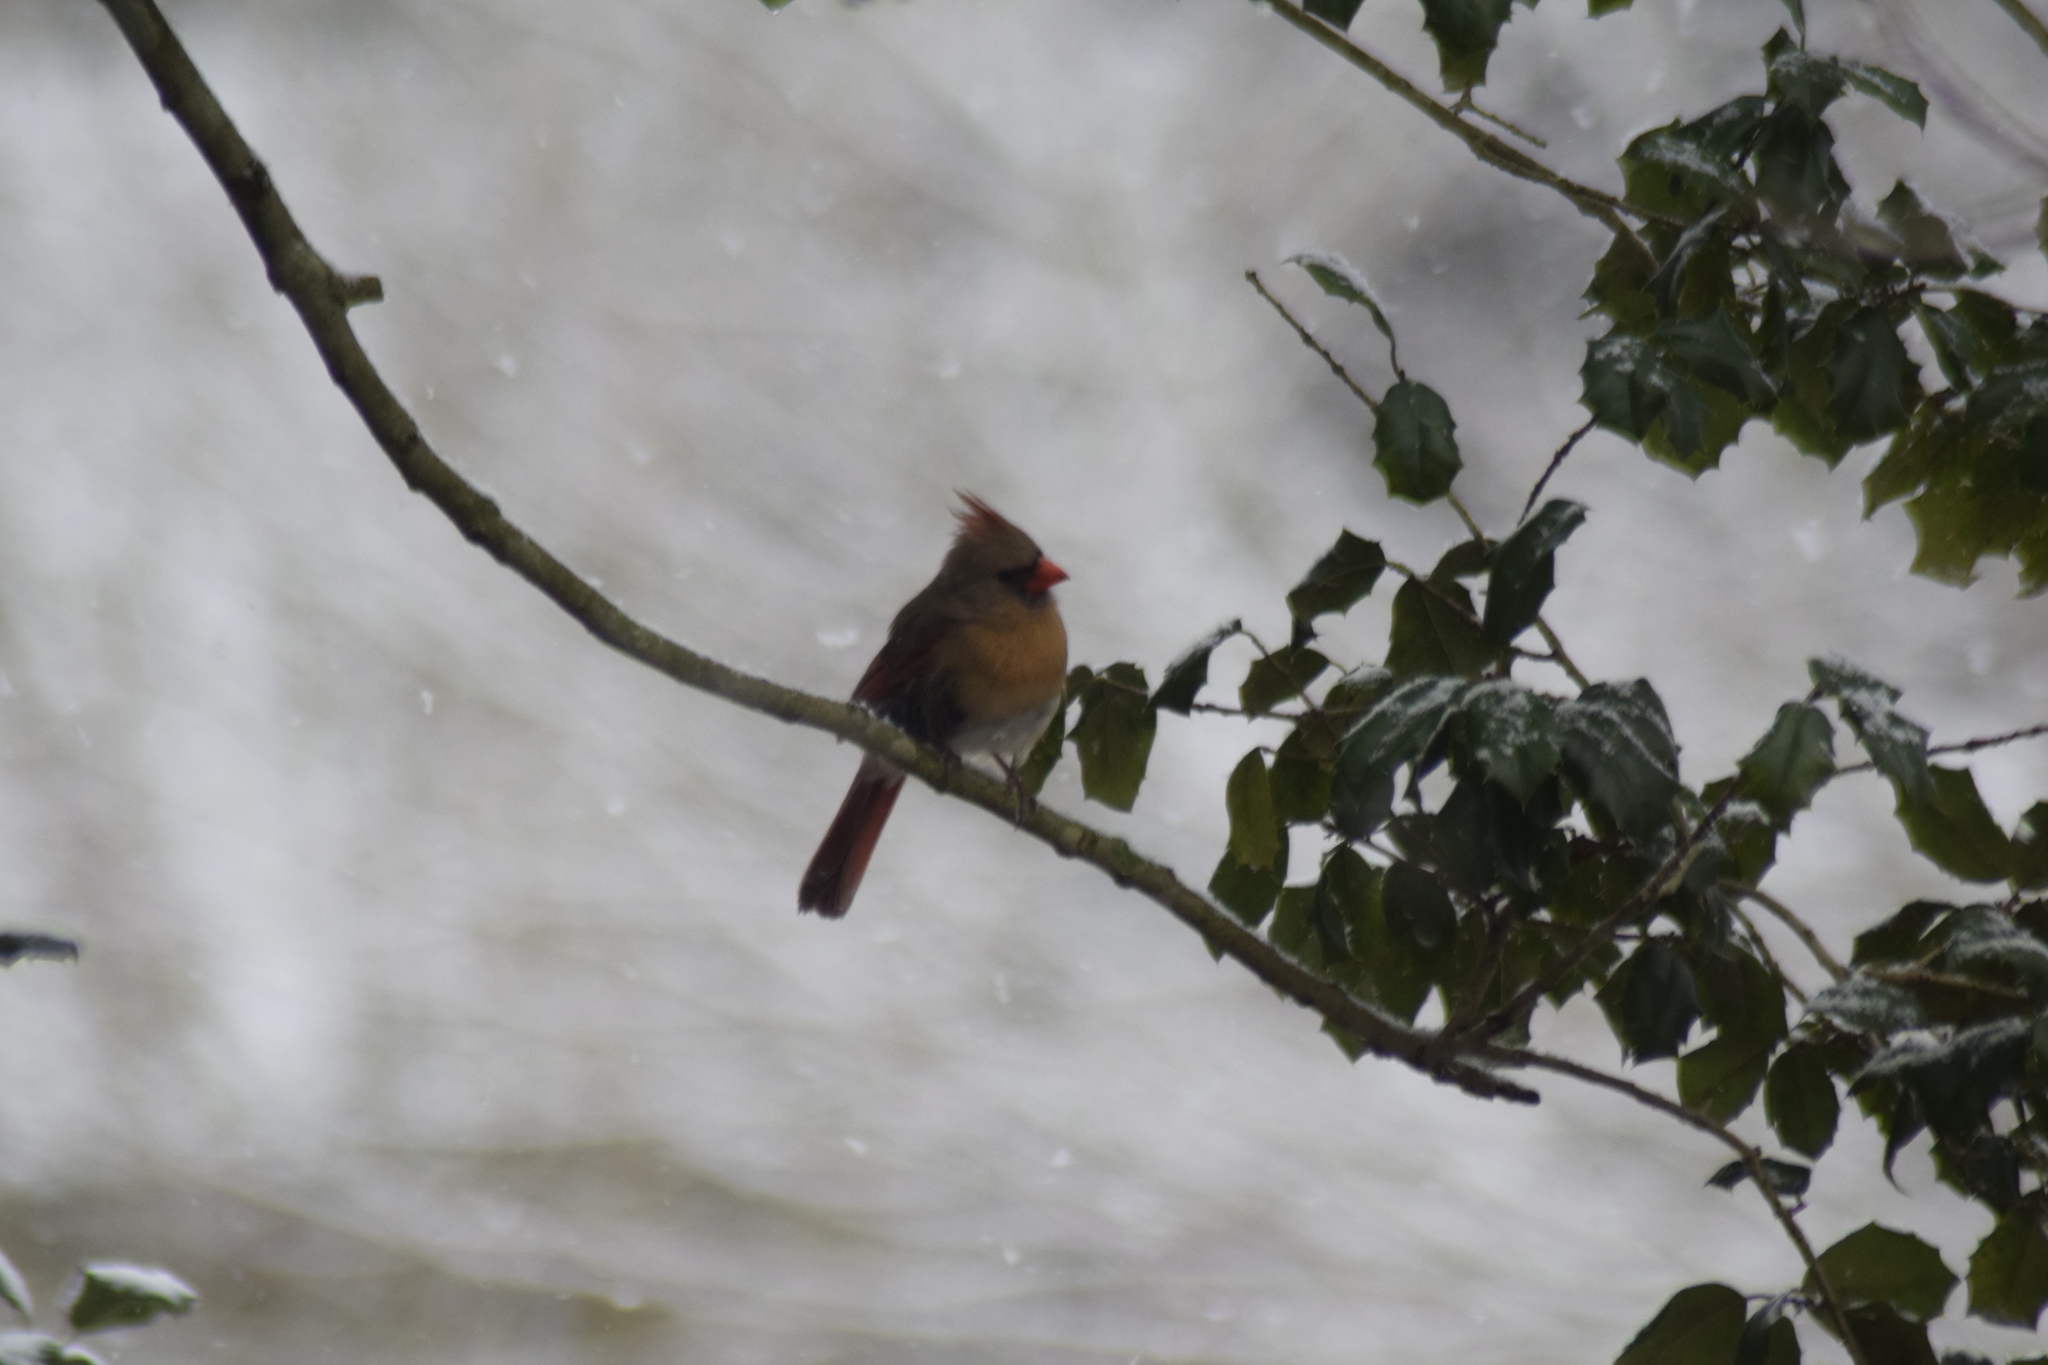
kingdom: Animalia
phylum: Chordata
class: Aves
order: Passeriformes
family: Cardinalidae
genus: Cardinalis
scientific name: Cardinalis cardinalis
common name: Northern cardinal
